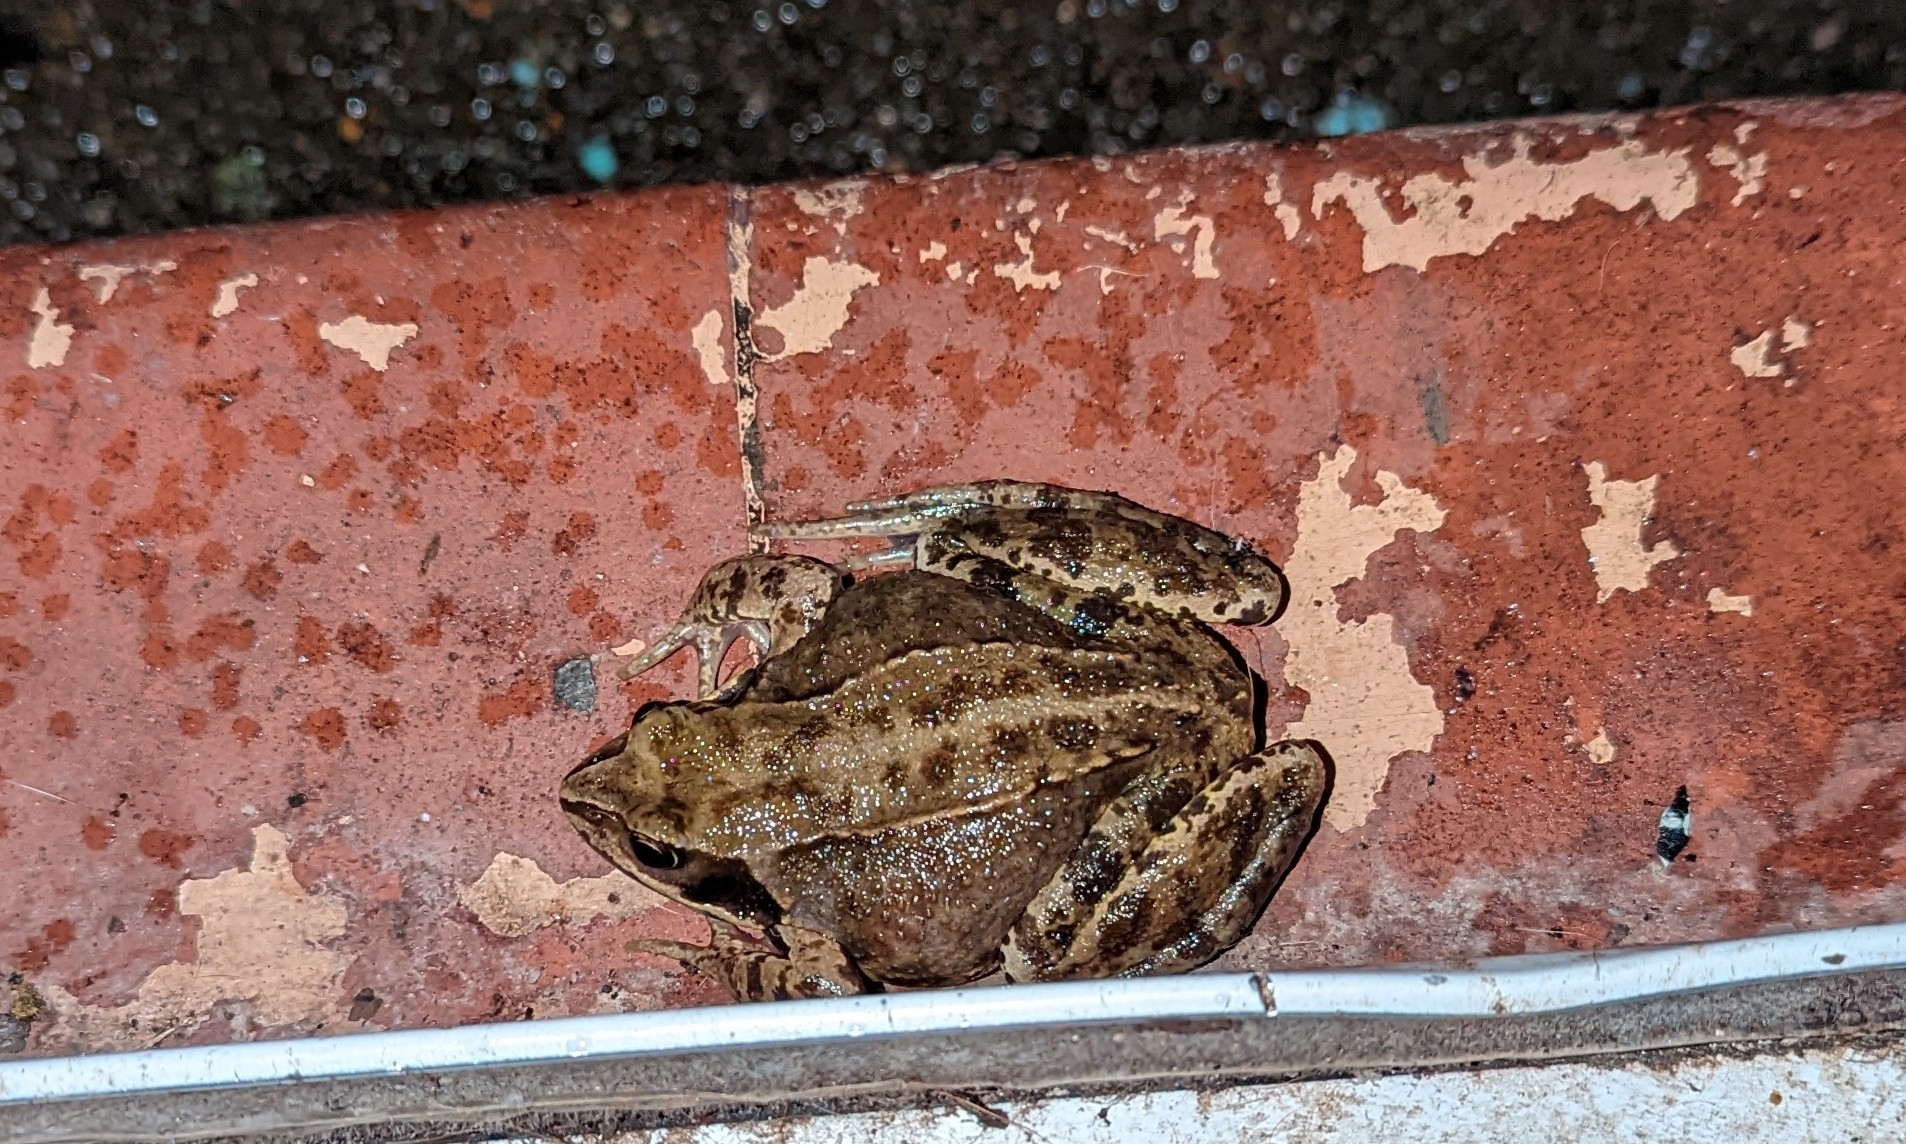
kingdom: Animalia
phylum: Chordata
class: Amphibia
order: Anura
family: Ranidae
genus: Rana
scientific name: Rana temporaria
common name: Common frog
